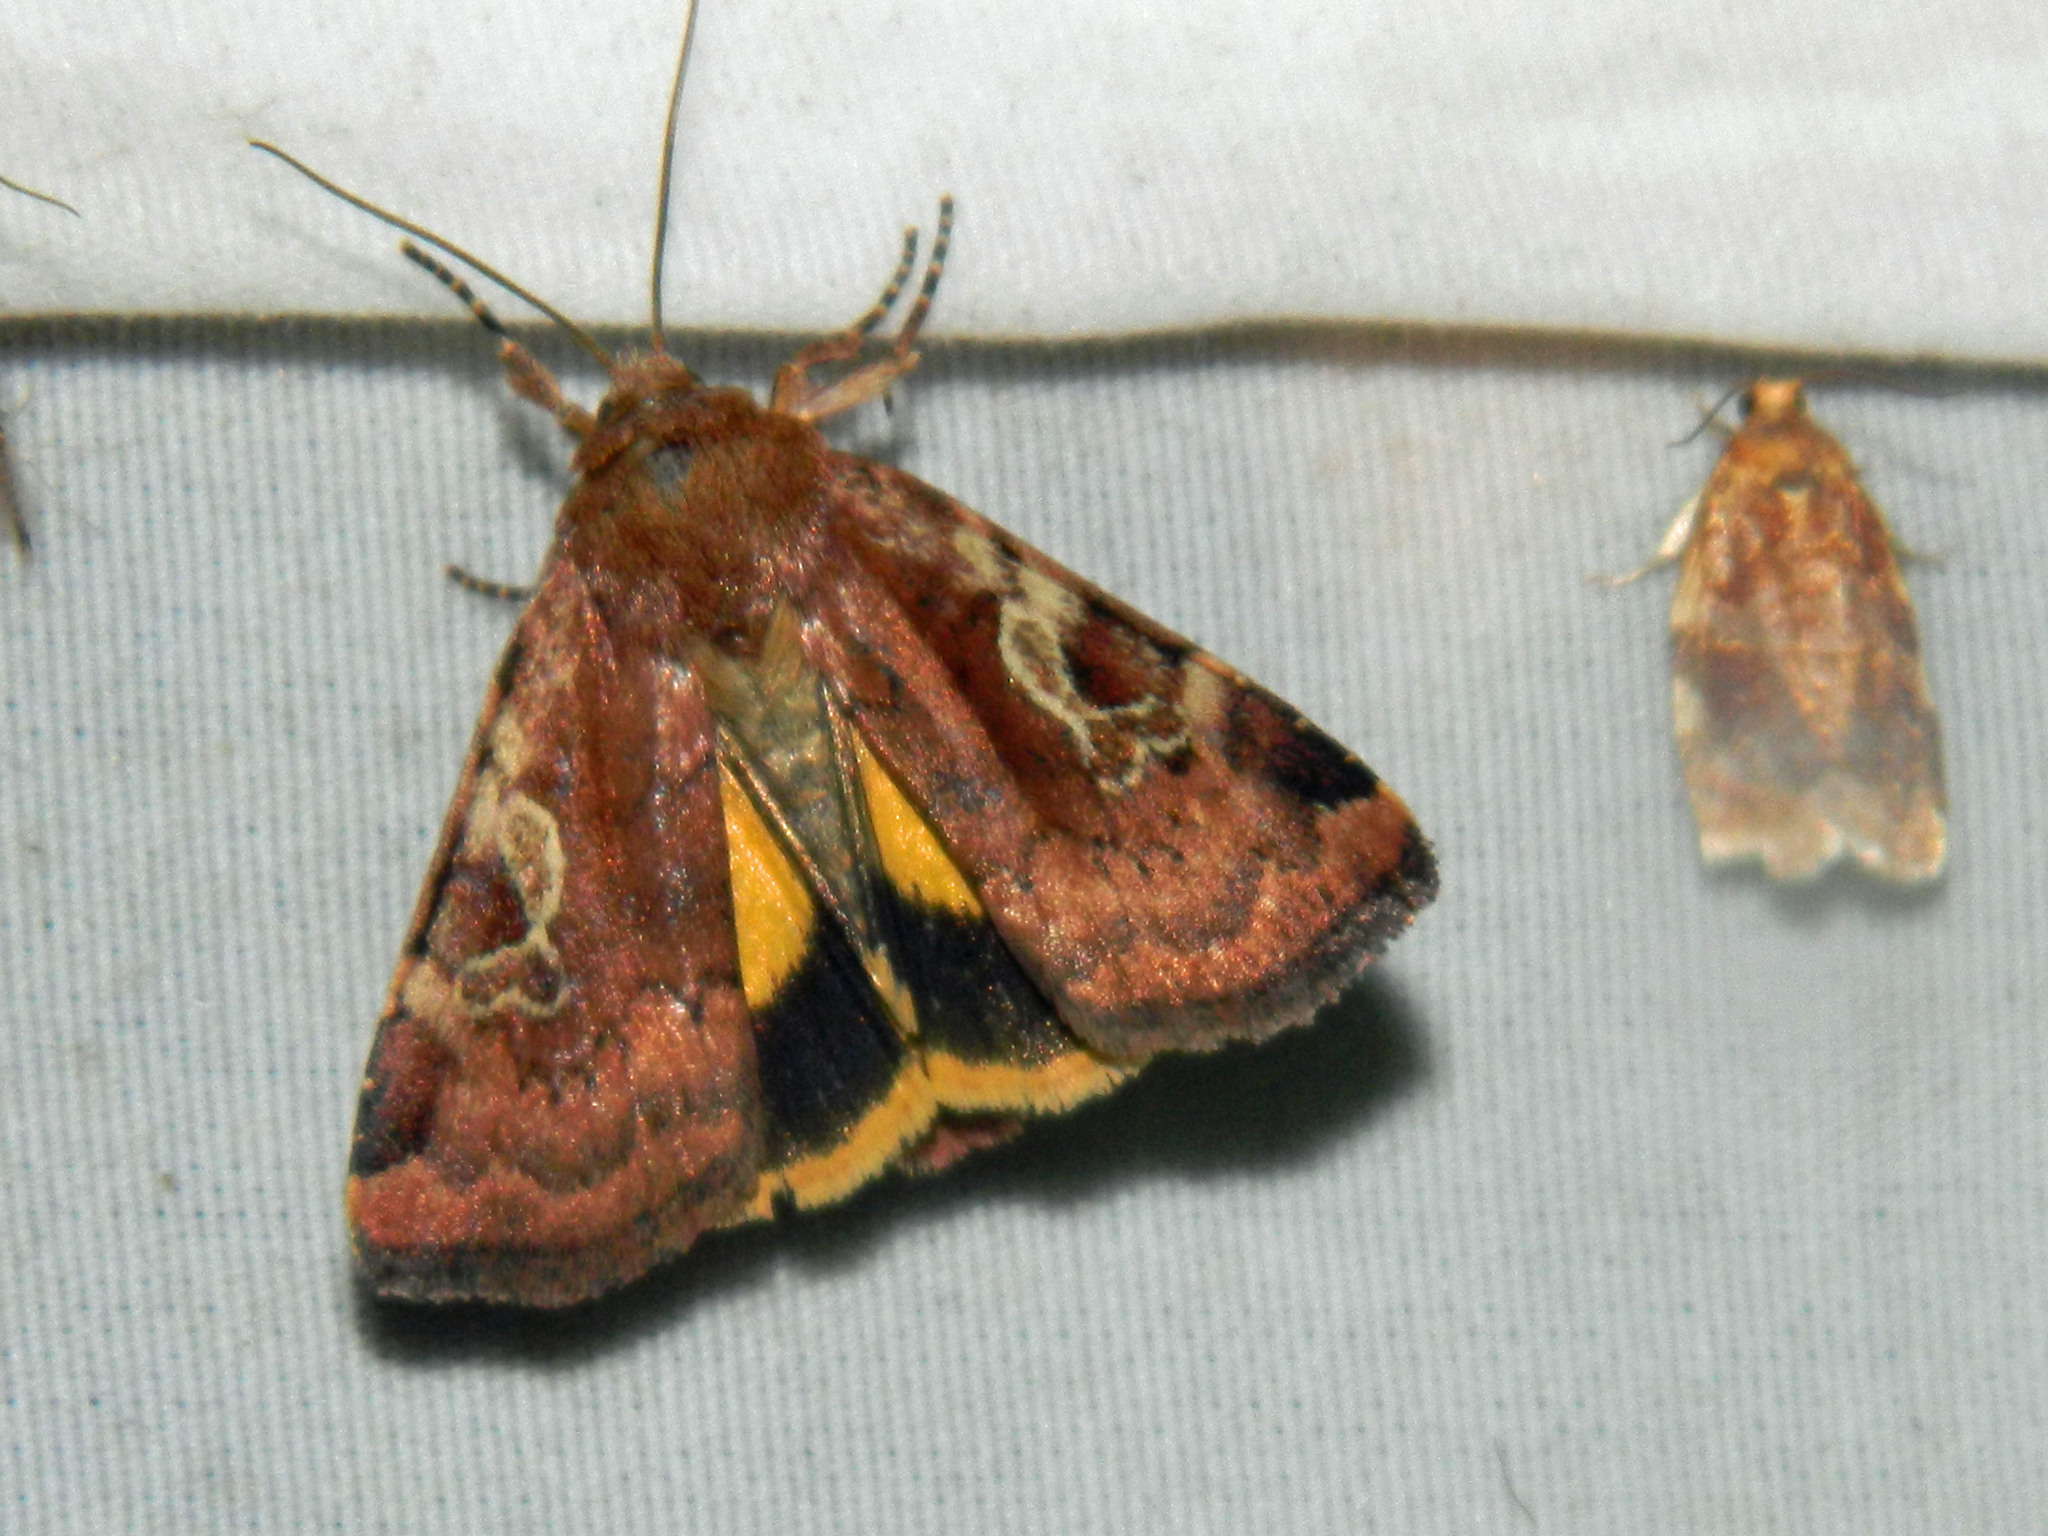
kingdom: Animalia
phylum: Arthropoda
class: Insecta
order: Lepidoptera
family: Noctuidae
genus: Cryptocala
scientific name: Cryptocala acadiensis
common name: Catocaline dart
